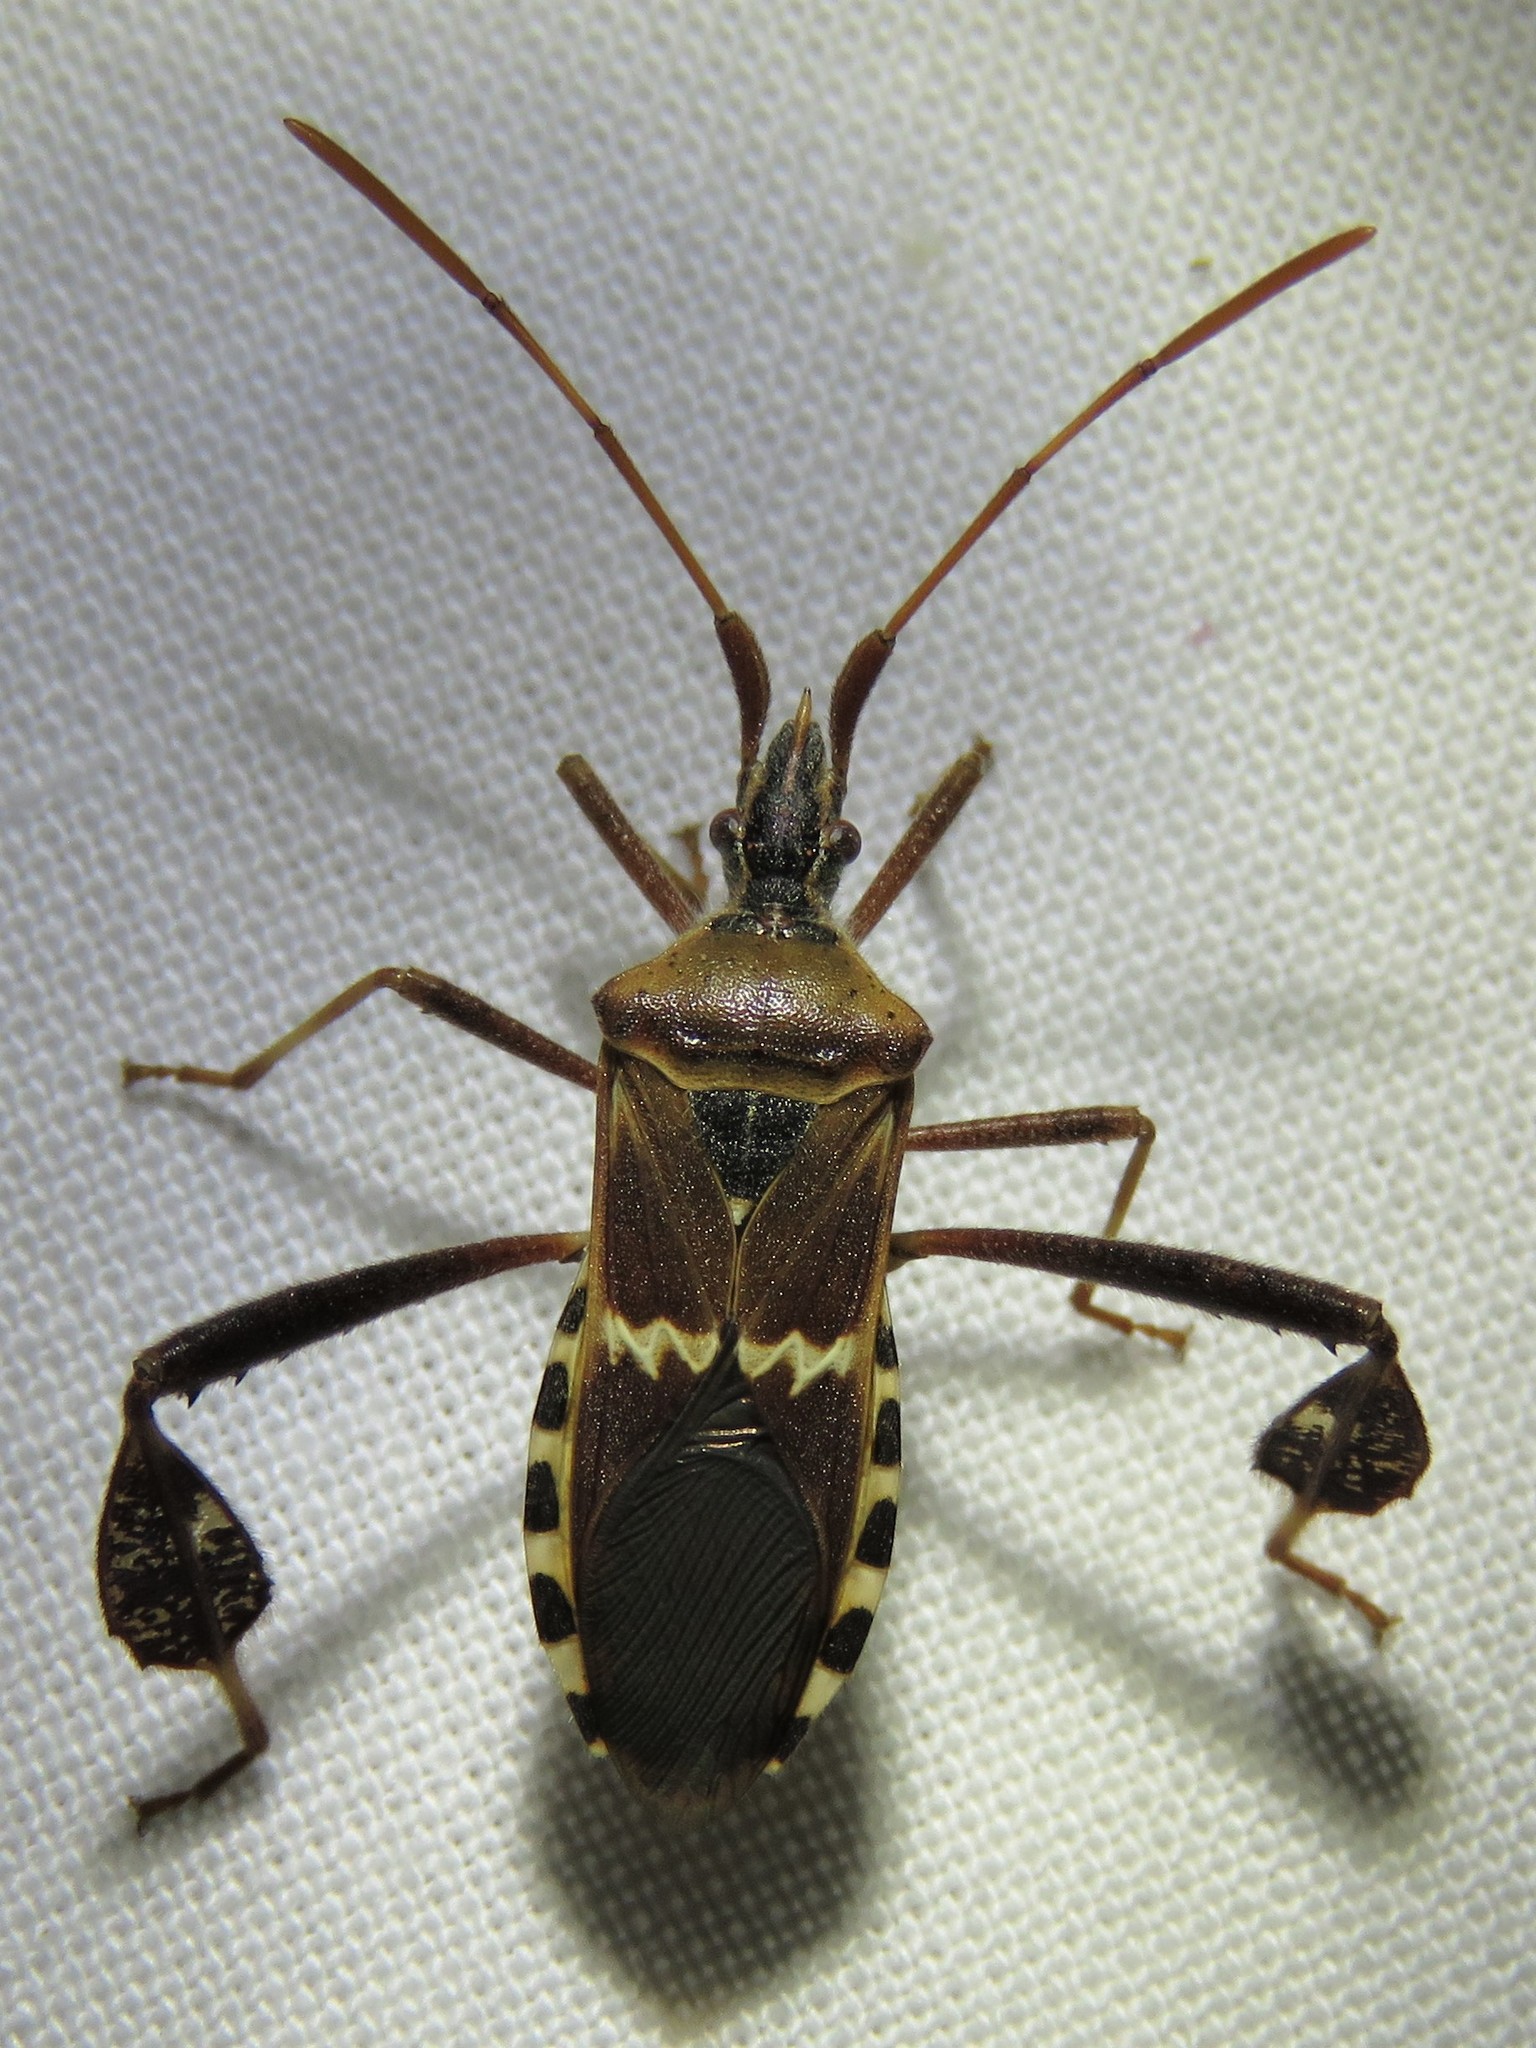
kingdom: Animalia
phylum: Arthropoda
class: Insecta
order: Hemiptera
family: Coreidae
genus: Leptoglossus
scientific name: Leptoglossus clypealis
